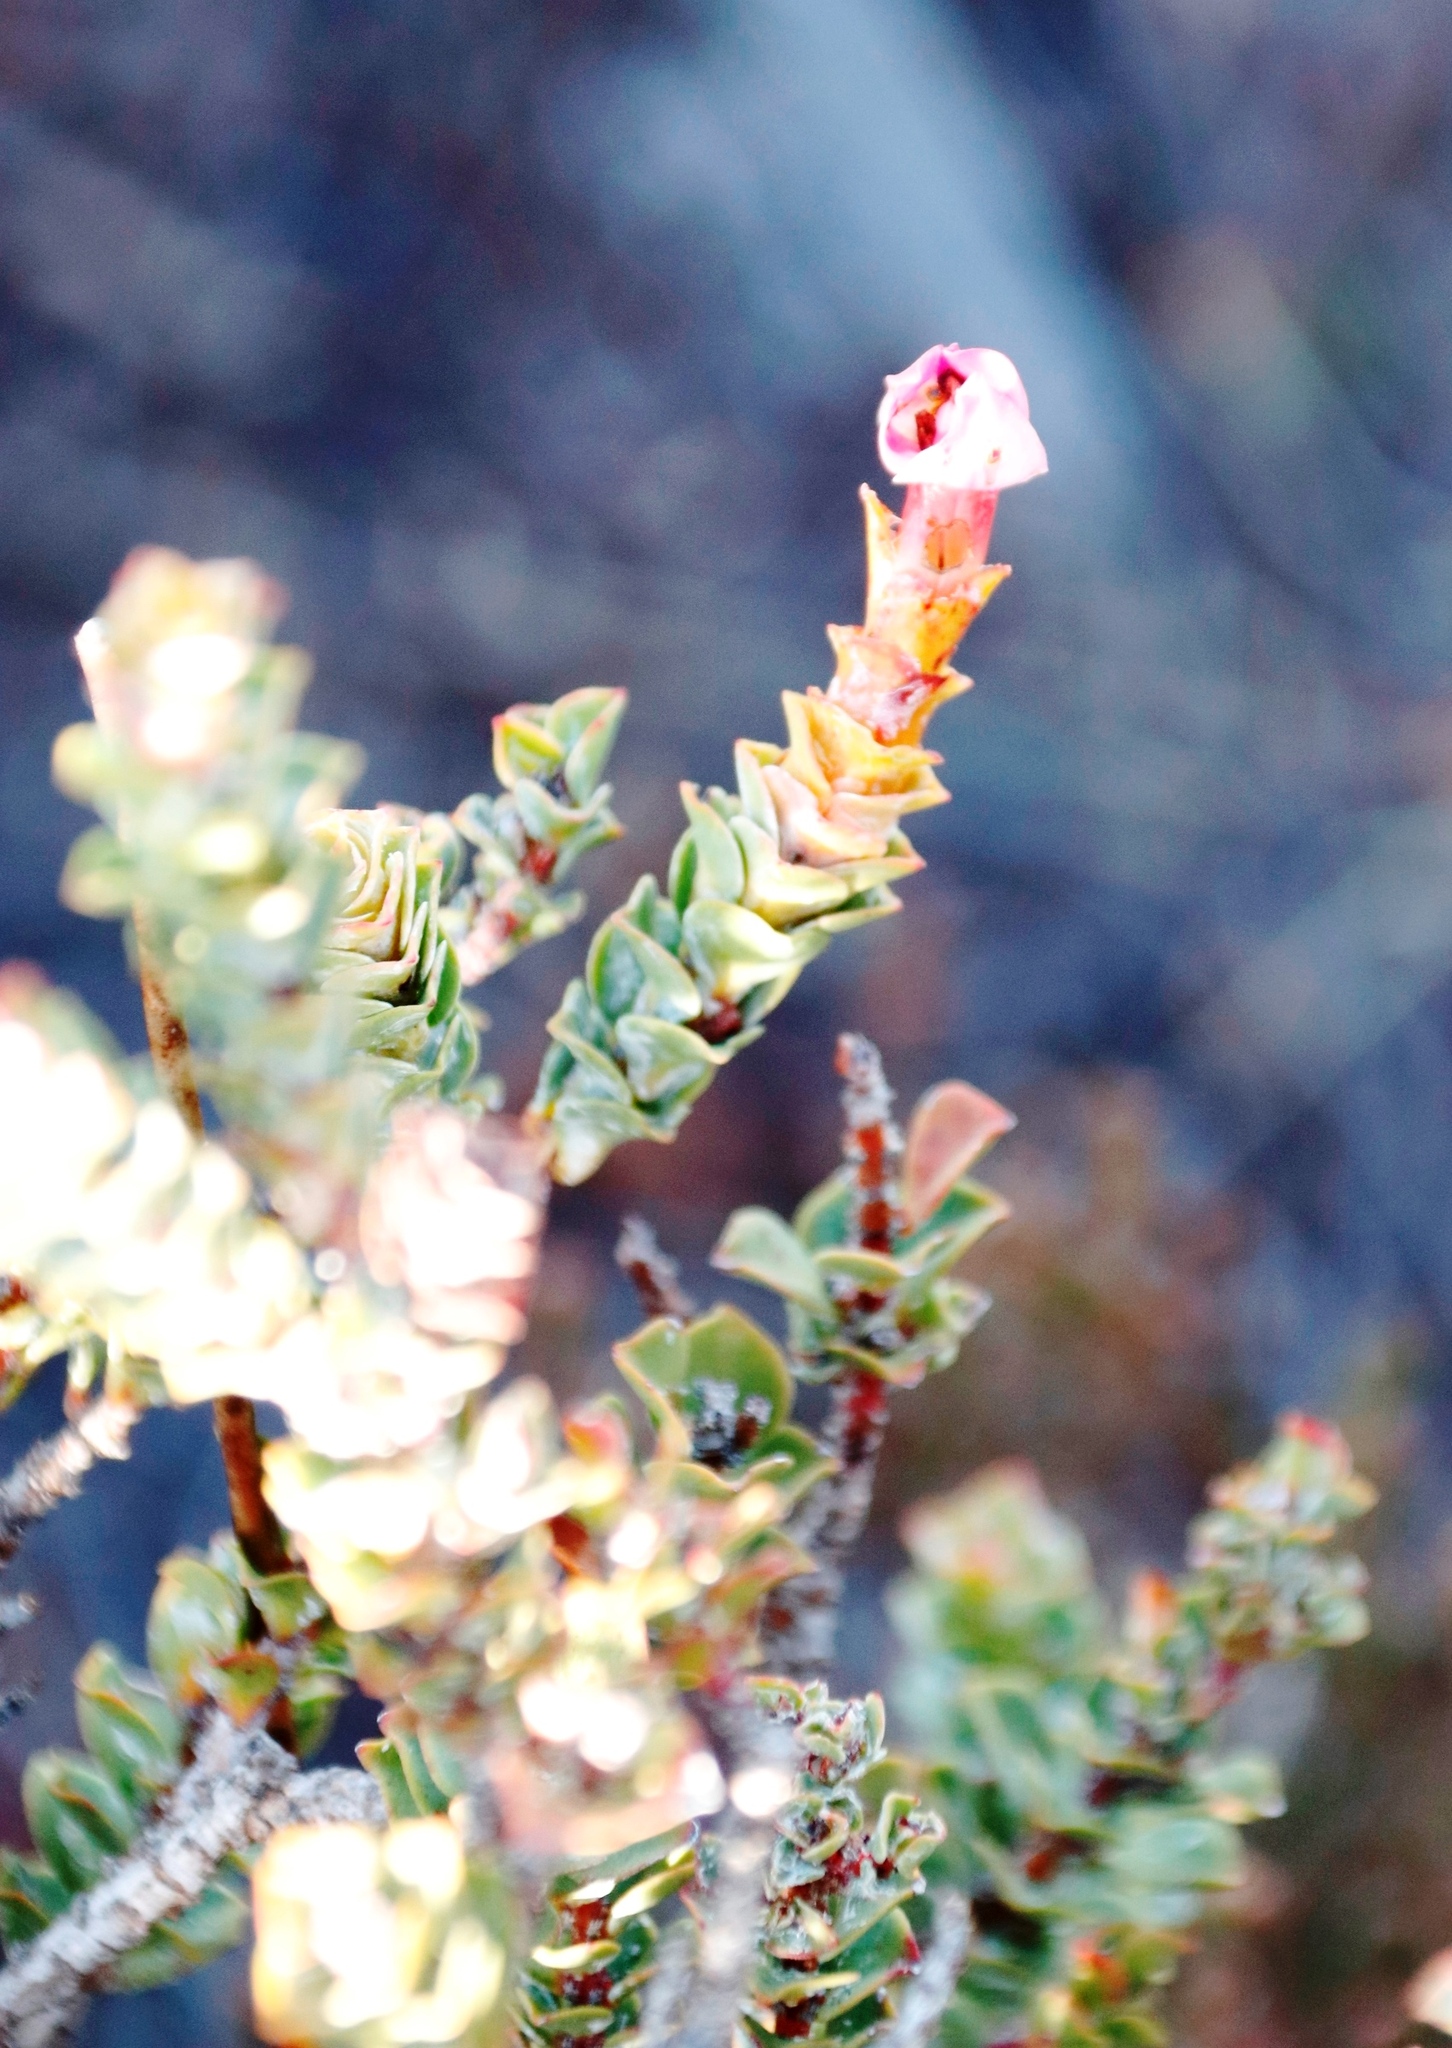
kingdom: Plantae
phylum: Tracheophyta
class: Magnoliopsida
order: Myrtales
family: Penaeaceae
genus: Saltera
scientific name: Saltera sarcocolla
